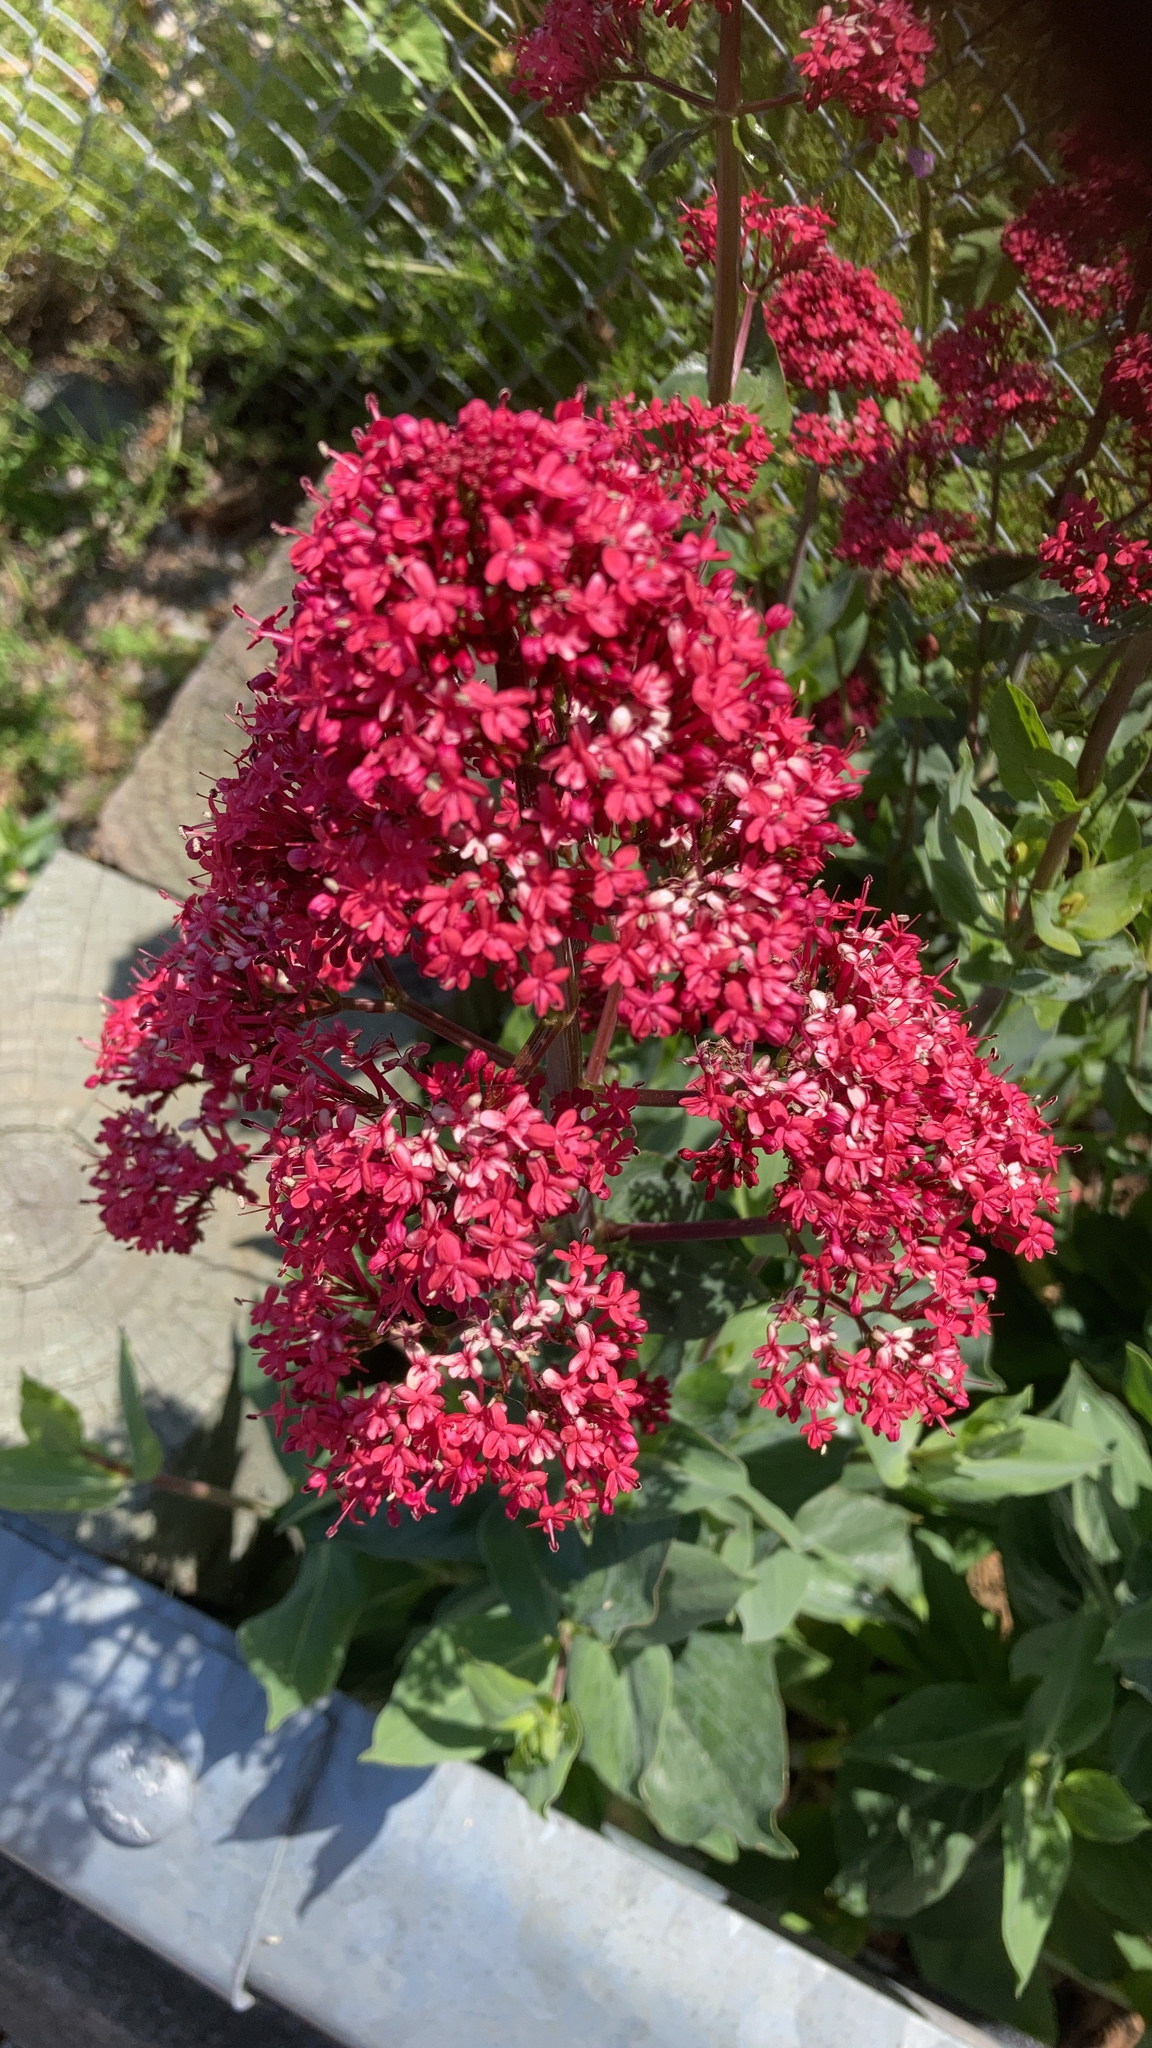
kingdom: Plantae
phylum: Tracheophyta
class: Magnoliopsida
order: Dipsacales
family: Caprifoliaceae
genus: Centranthus
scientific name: Centranthus ruber
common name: Red valerian
